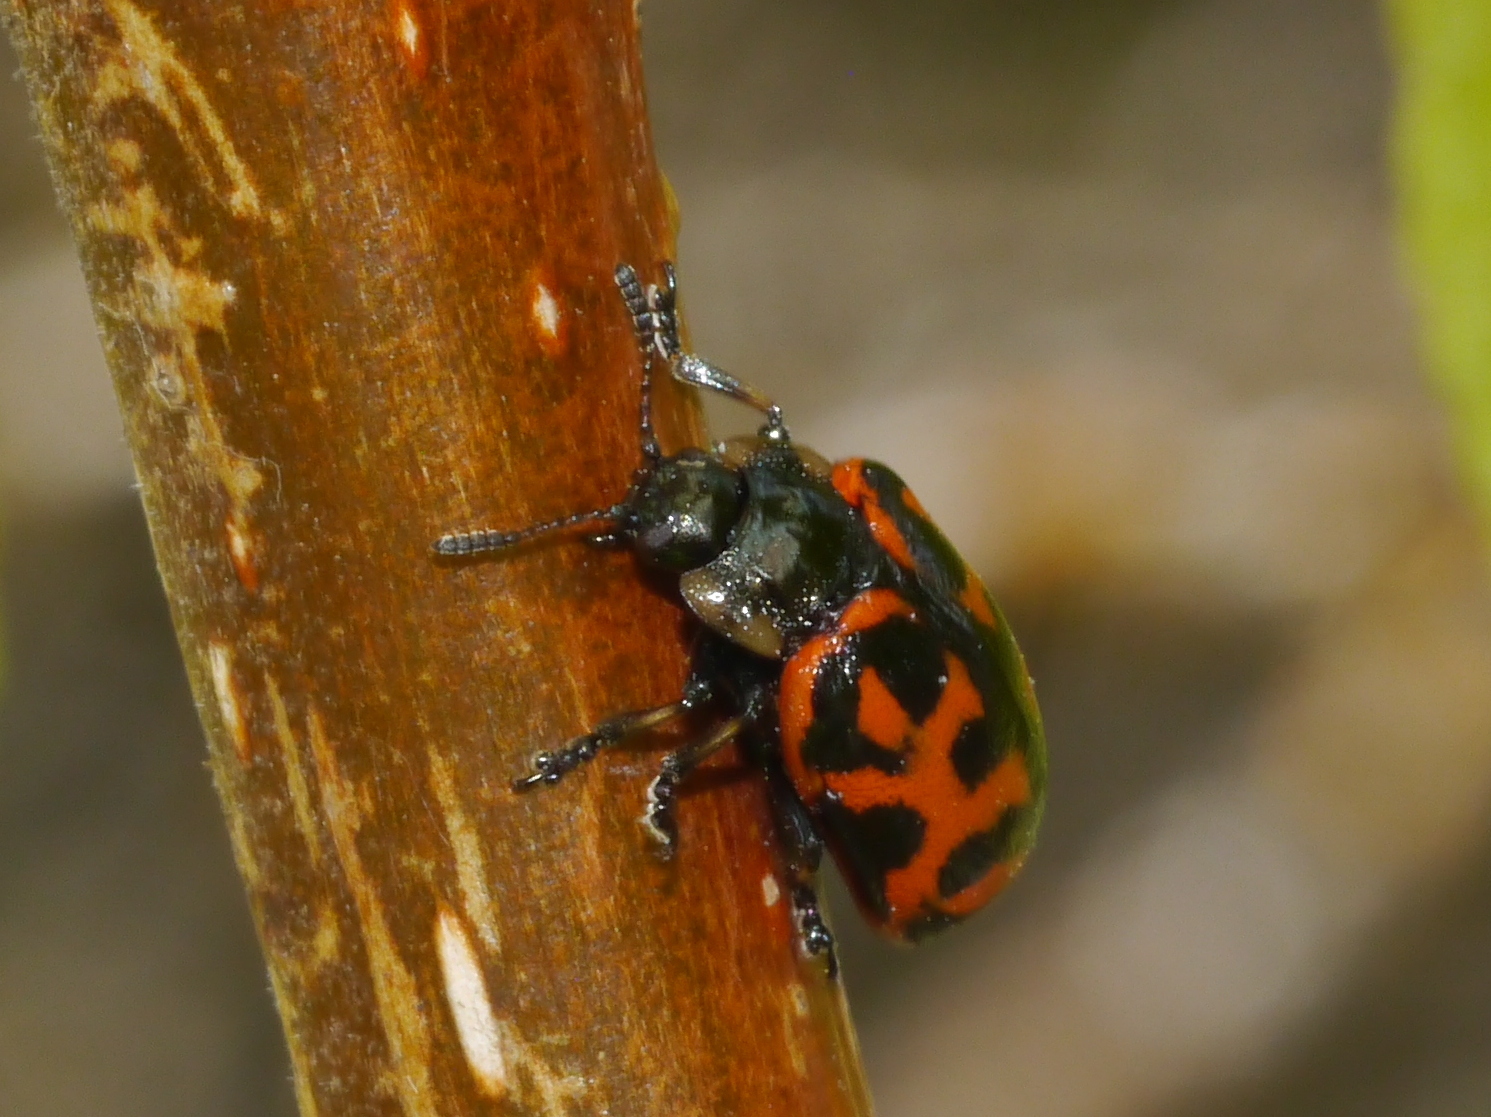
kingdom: Animalia
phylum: Arthropoda
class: Insecta
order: Coleoptera
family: Chrysomelidae
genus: Chrysomela
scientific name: Chrysomela falsa
